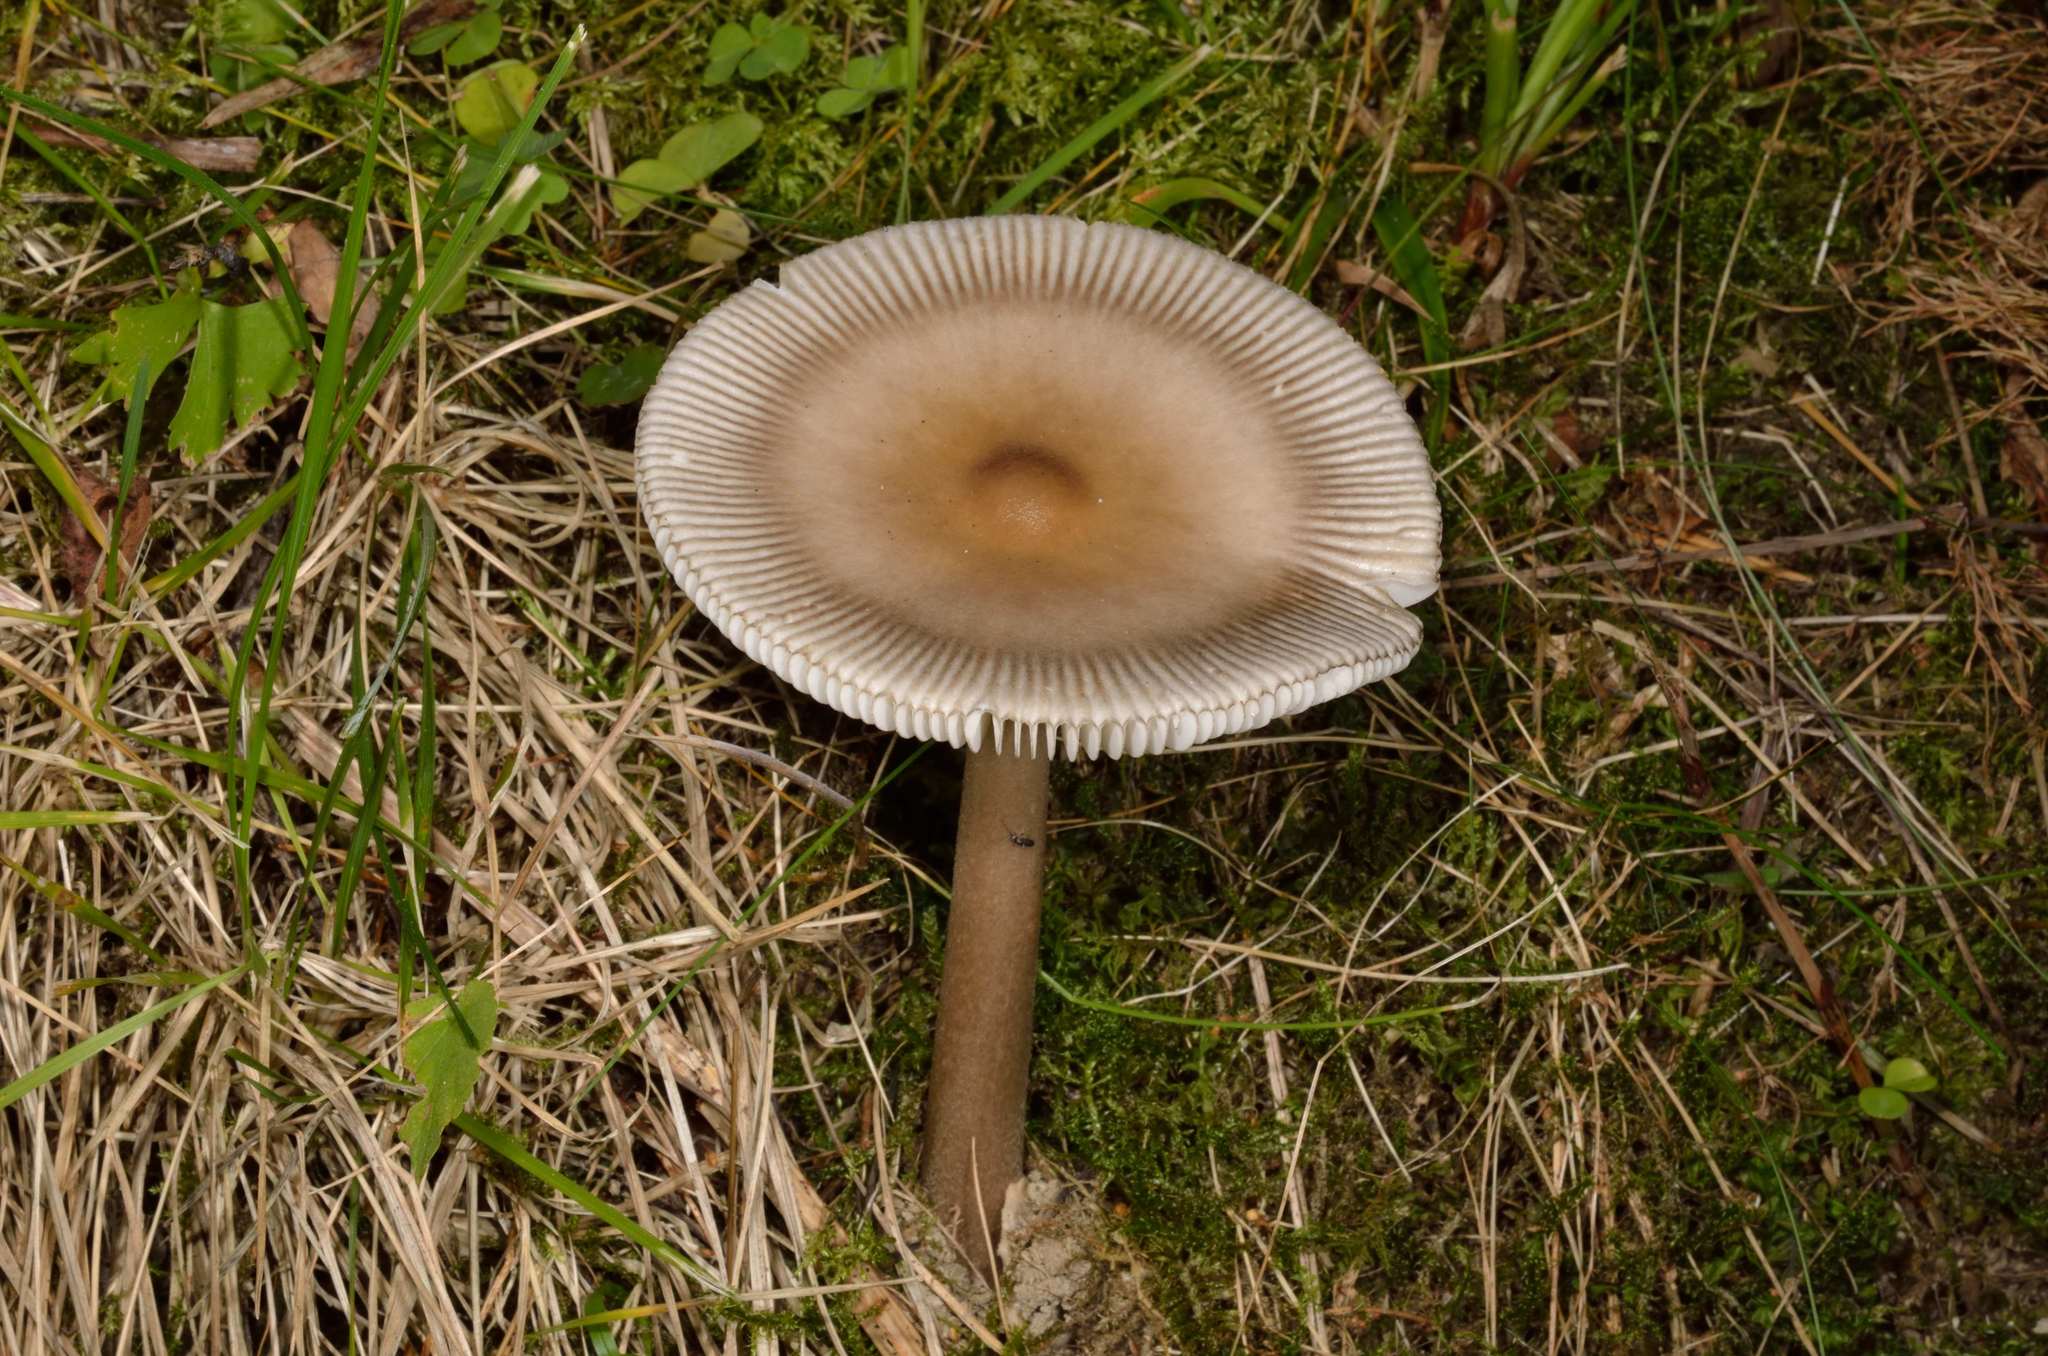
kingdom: Fungi
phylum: Basidiomycota
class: Agaricomycetes
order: Agaricales
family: Amanitaceae
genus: Amanita
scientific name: Amanita battarrae
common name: Banded amanita
